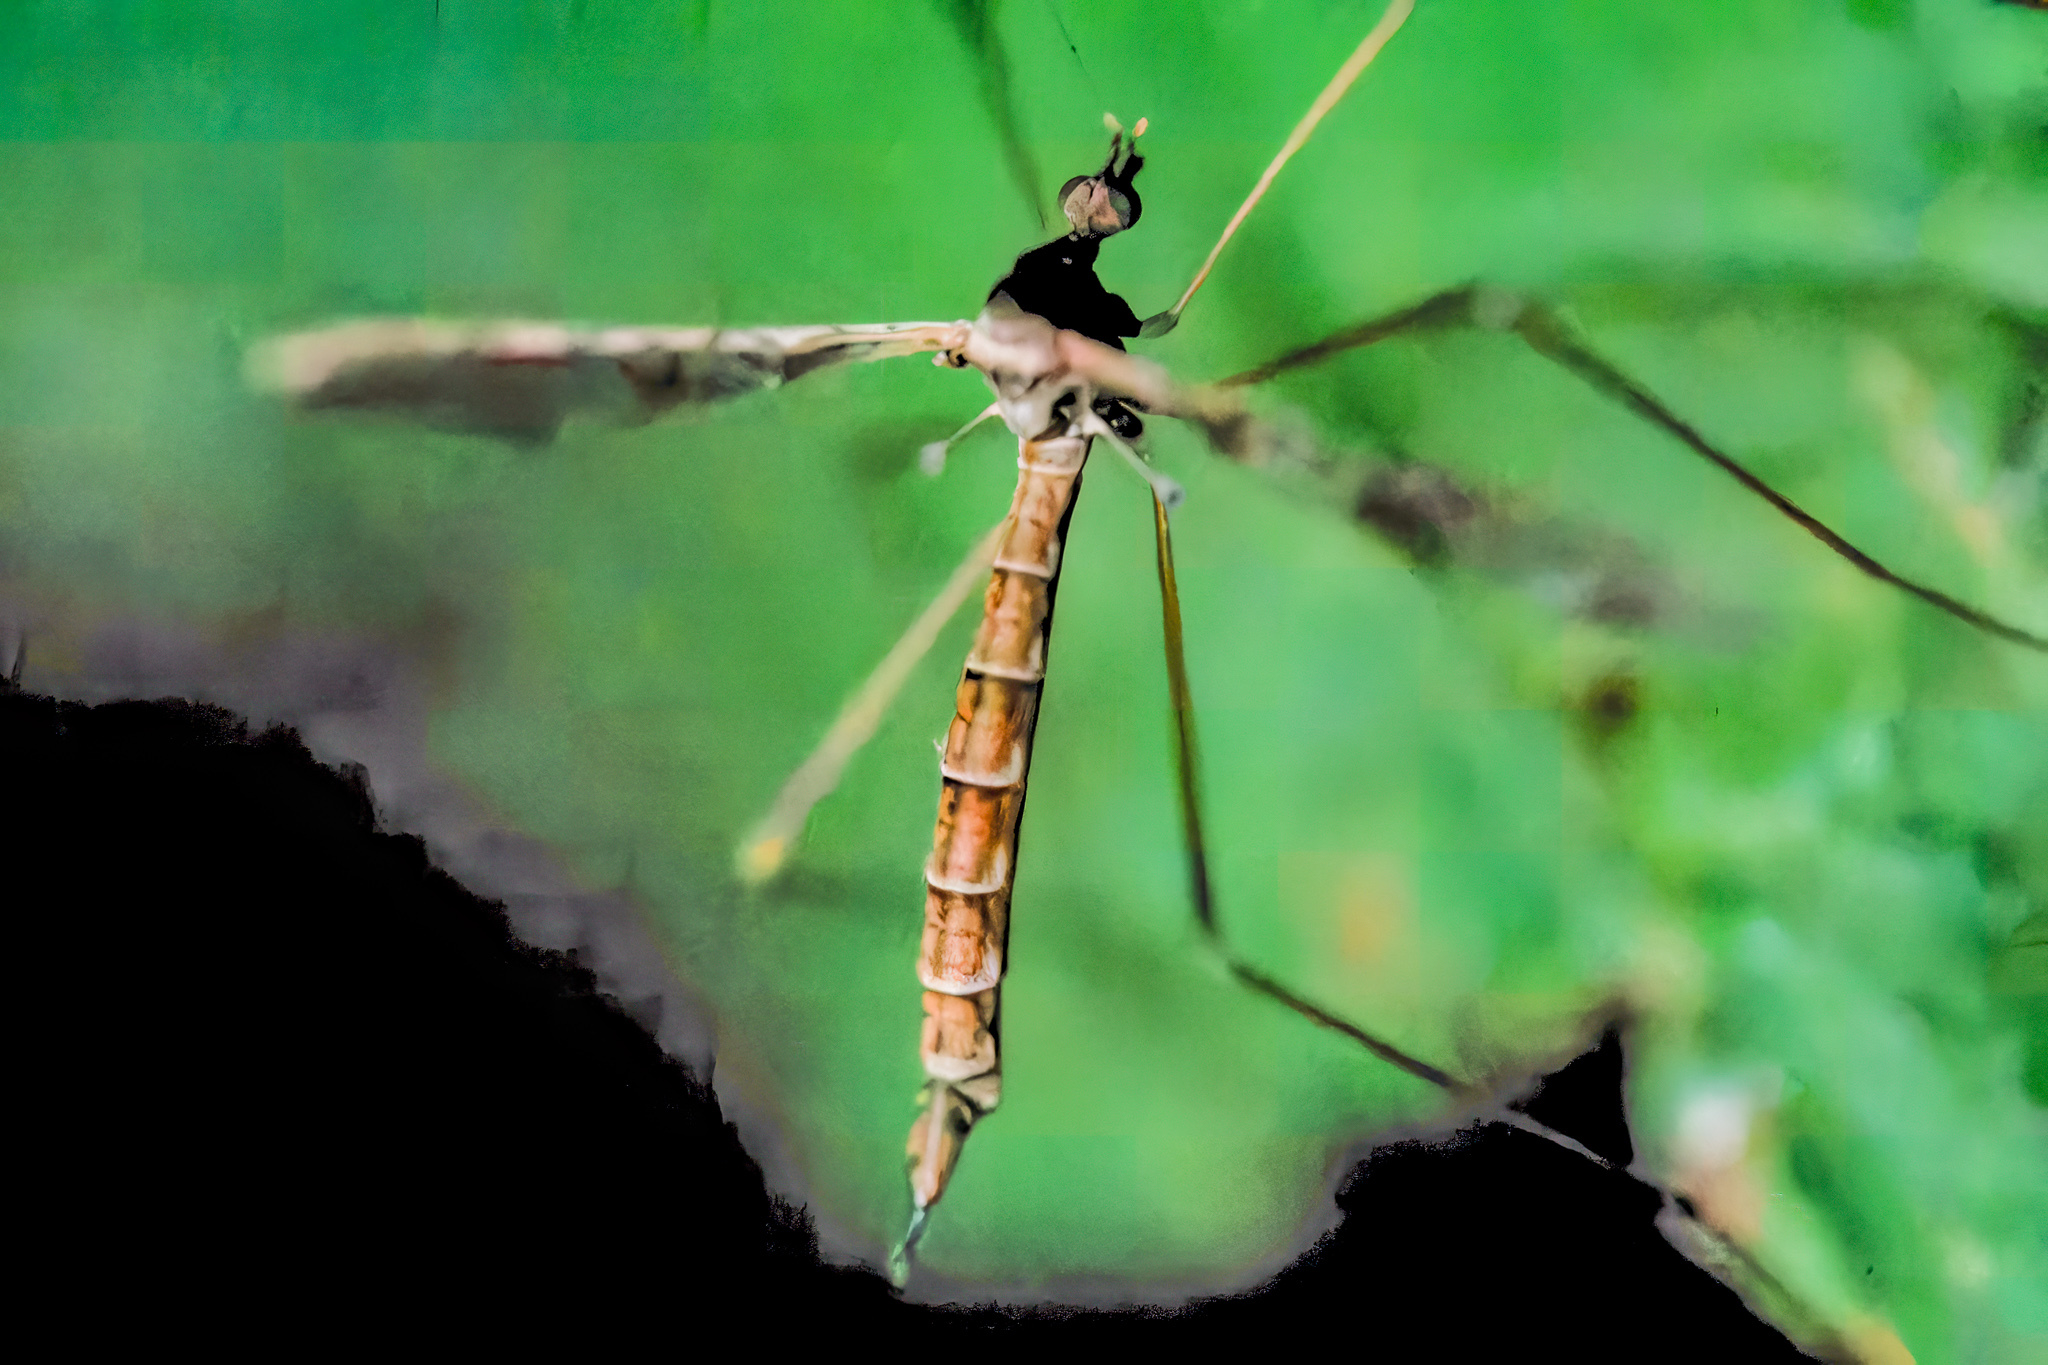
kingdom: Animalia
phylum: Arthropoda
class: Insecta
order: Diptera
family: Limoniidae
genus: Epiphragma
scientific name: Epiphragma solatrix
